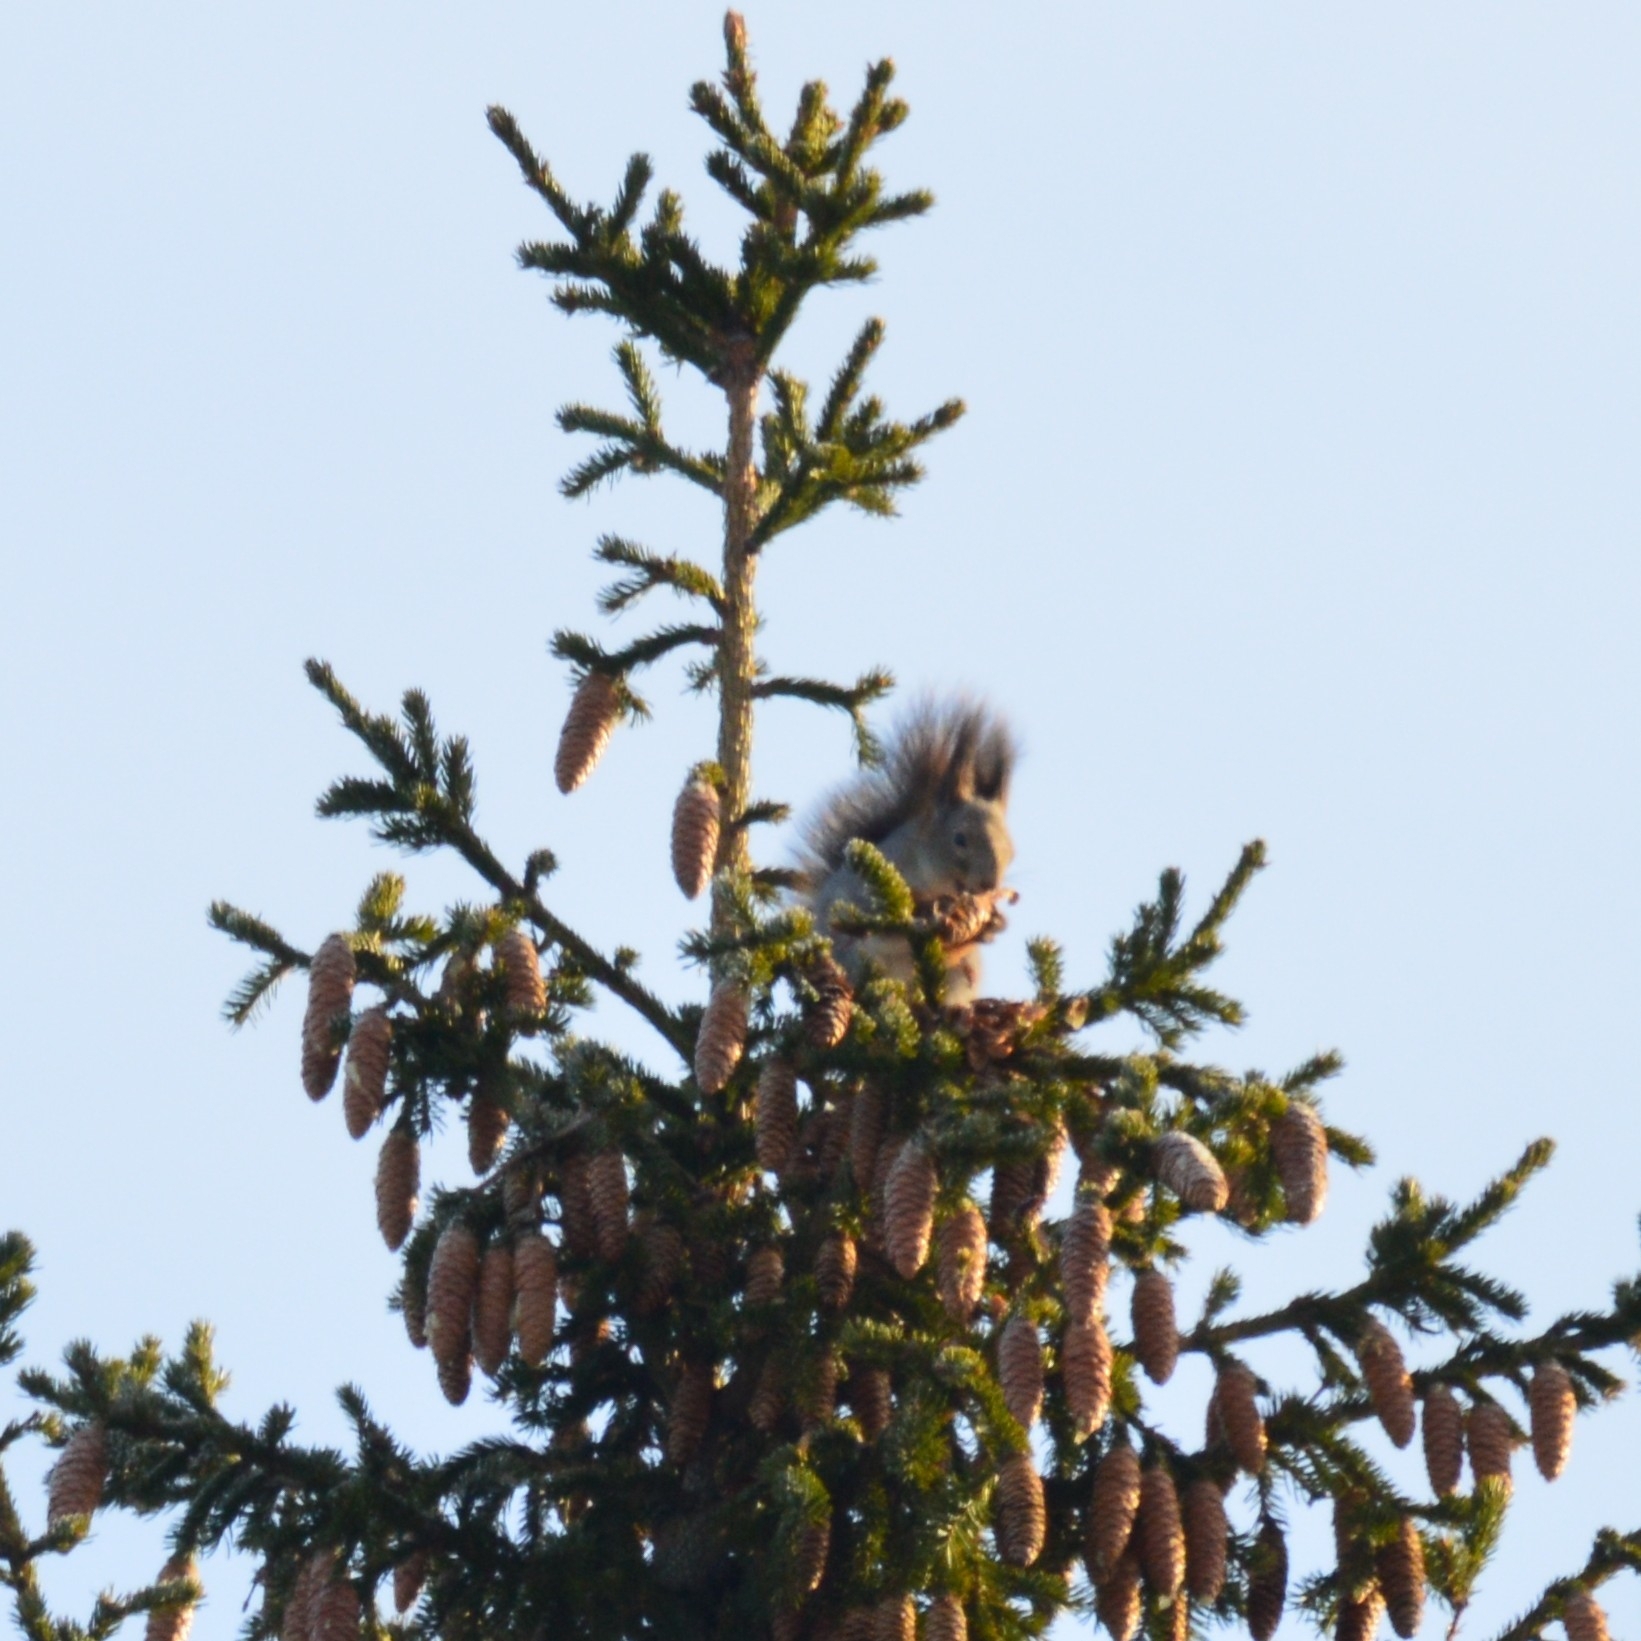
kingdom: Animalia
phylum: Chordata
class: Mammalia
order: Rodentia
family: Sciuridae
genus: Sciurus
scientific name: Sciurus vulgaris
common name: Eurasian red squirrel
